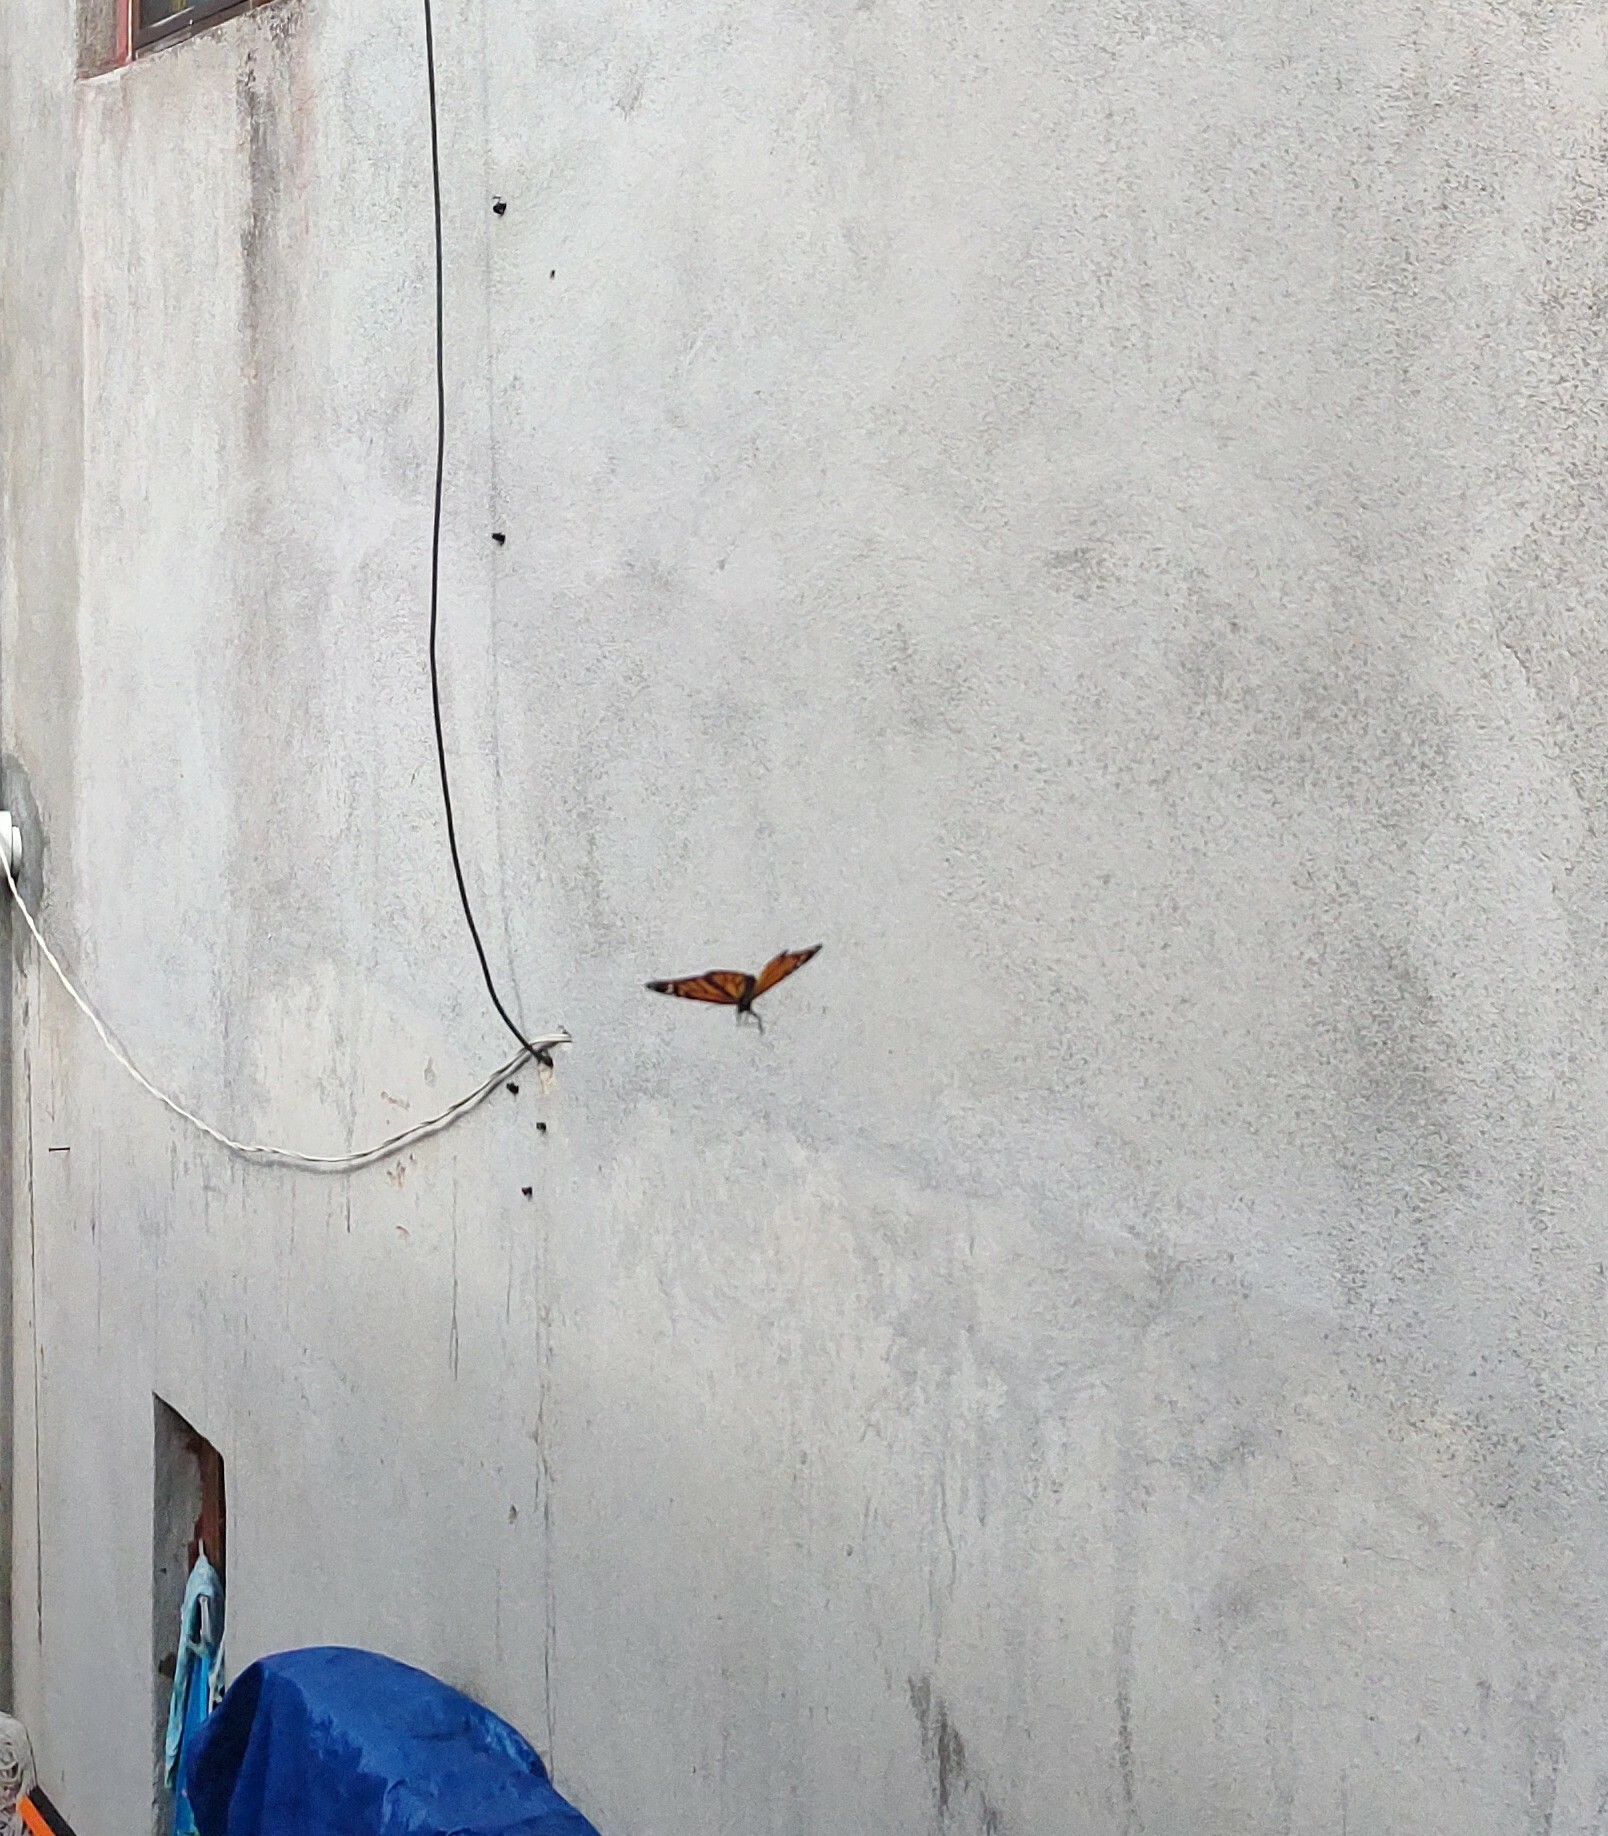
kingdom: Animalia
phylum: Arthropoda
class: Insecta
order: Lepidoptera
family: Nymphalidae
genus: Danaus
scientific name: Danaus plexippus
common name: Monarch
